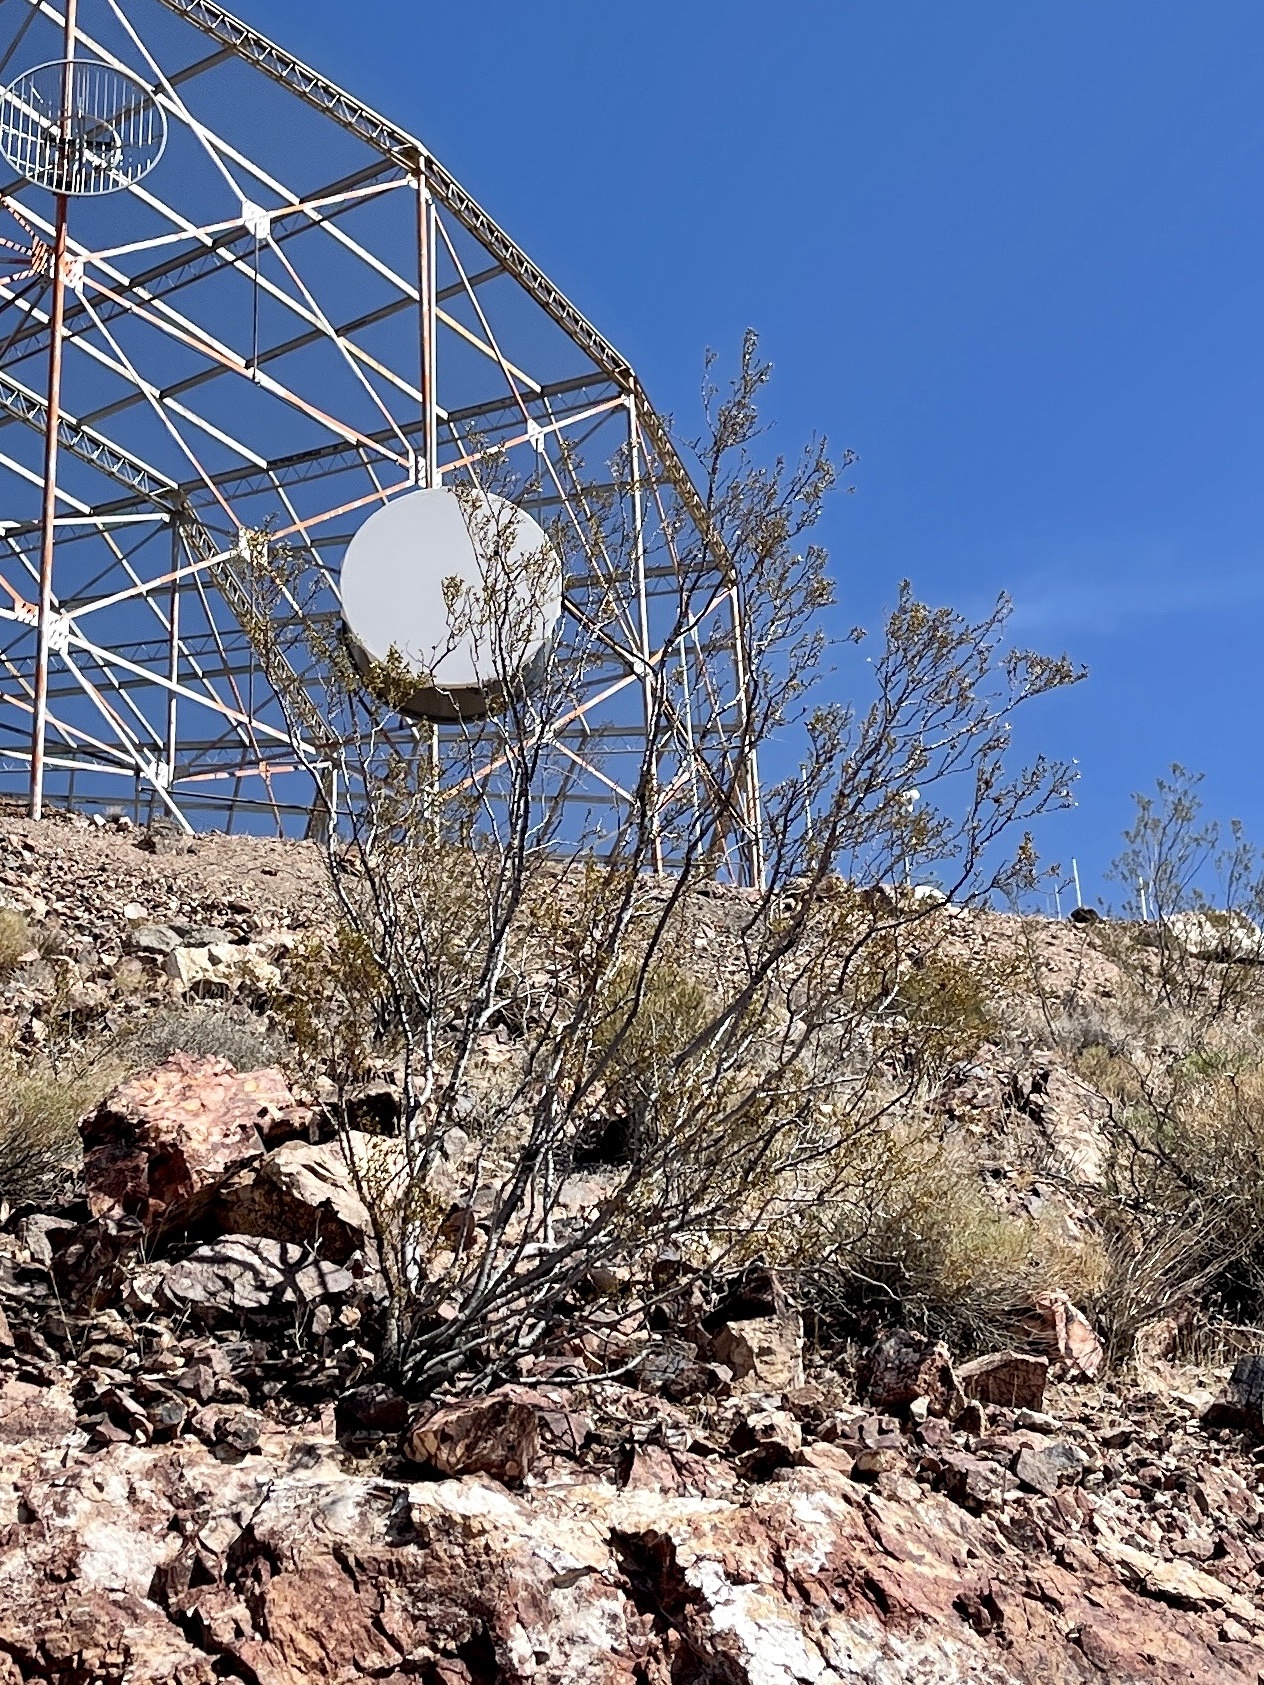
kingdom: Plantae
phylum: Tracheophyta
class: Magnoliopsida
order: Zygophyllales
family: Zygophyllaceae
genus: Larrea
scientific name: Larrea tridentata
